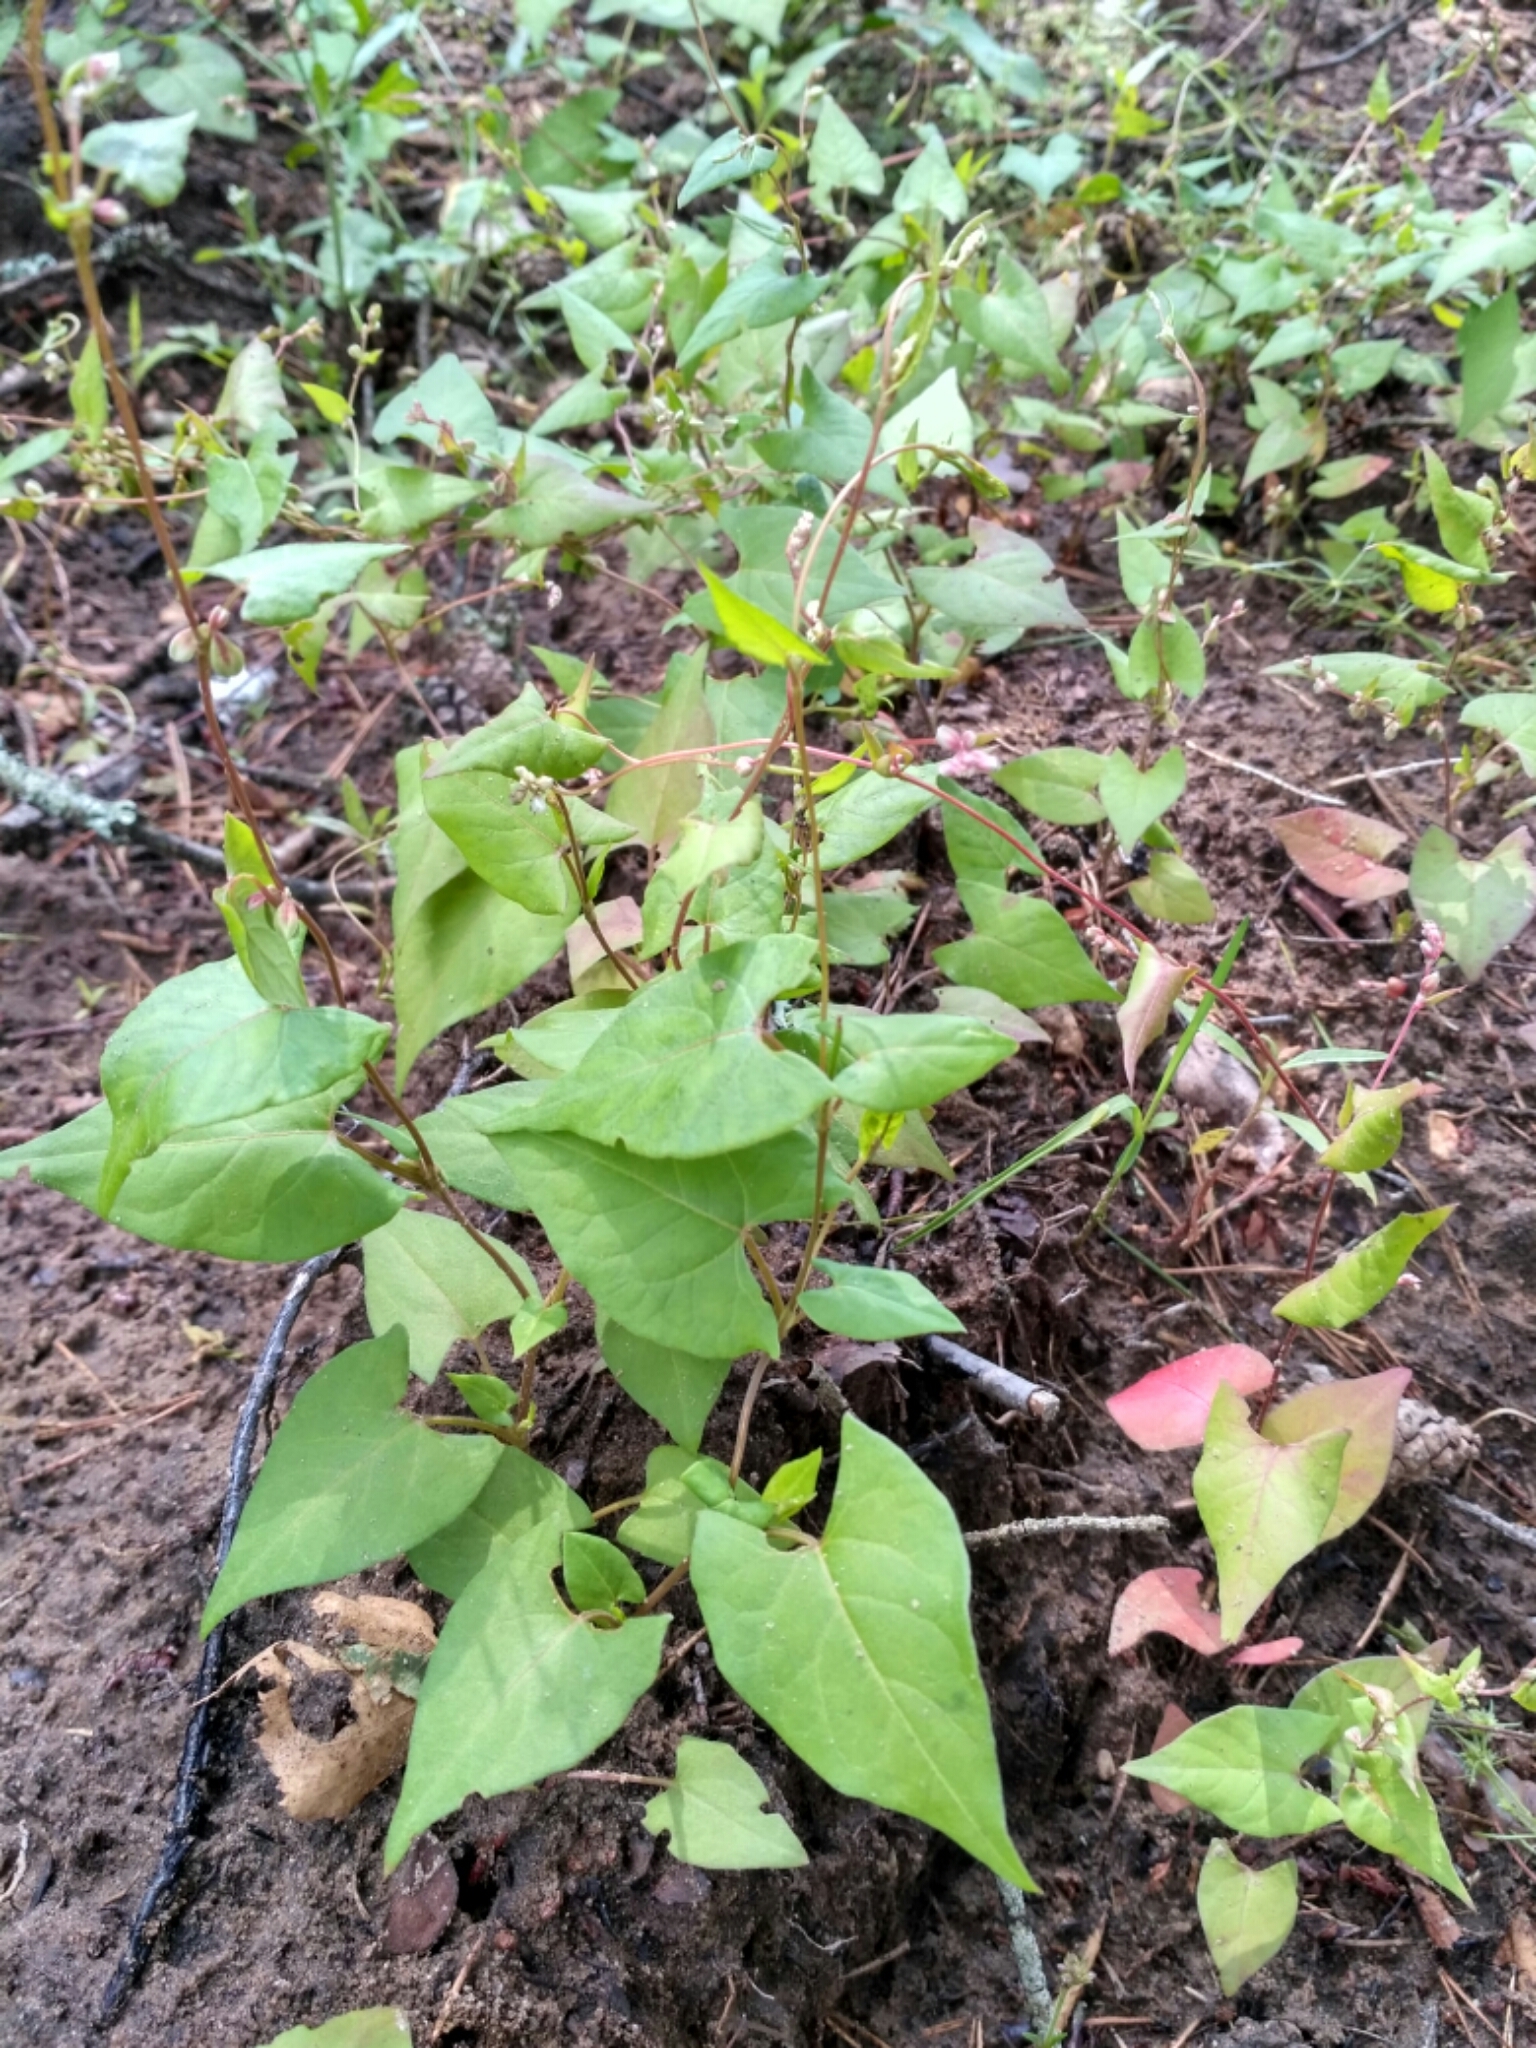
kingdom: Plantae
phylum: Tracheophyta
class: Magnoliopsida
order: Caryophyllales
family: Polygonaceae
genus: Fallopia
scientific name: Fallopia dumetorum
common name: Copse-bindweed
